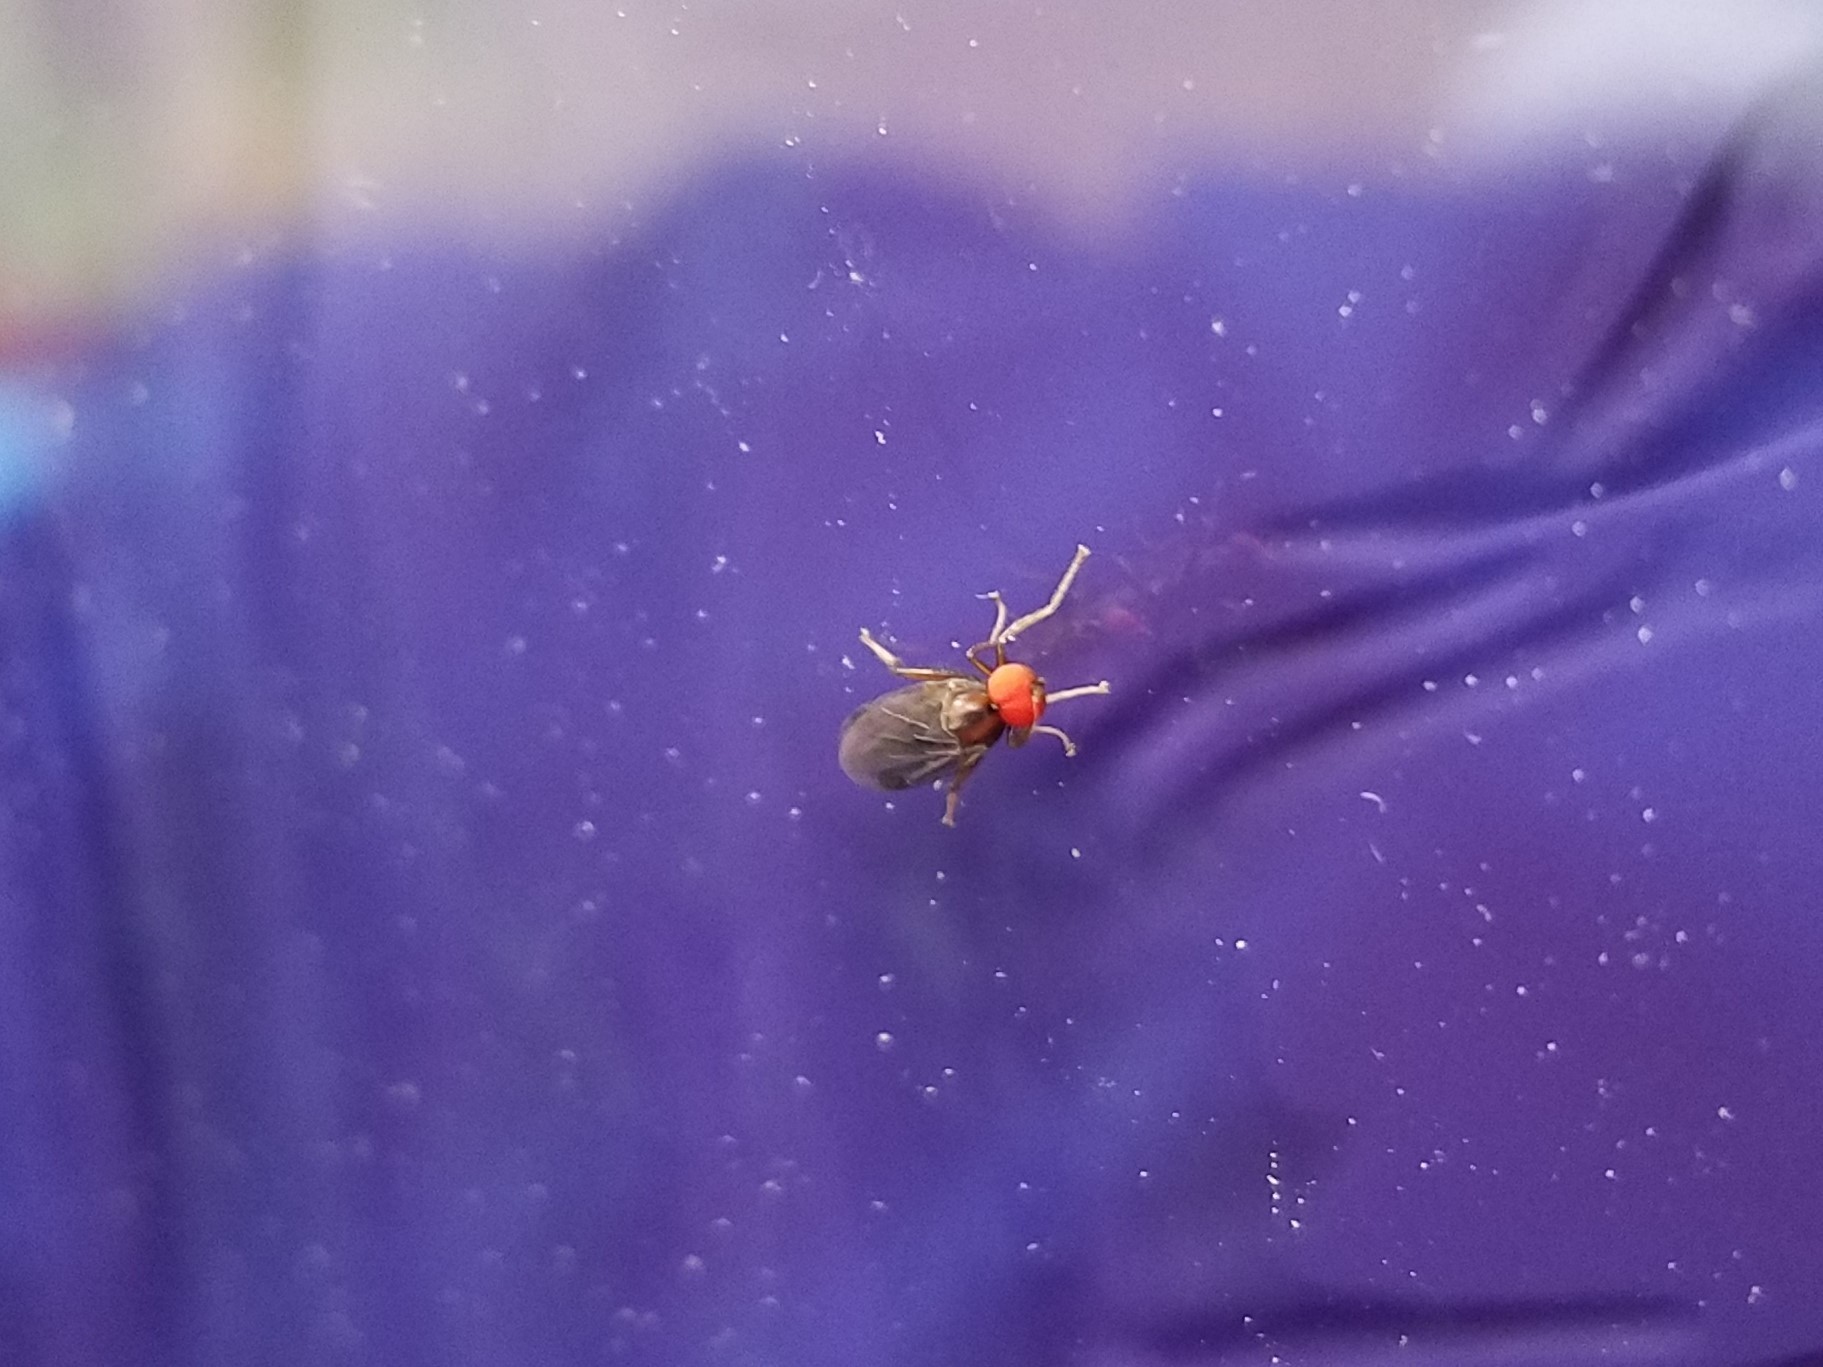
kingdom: Animalia
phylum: Arthropoda
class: Insecta
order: Diptera
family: Hybotidae
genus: Syneches
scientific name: Syneches thoracicus
